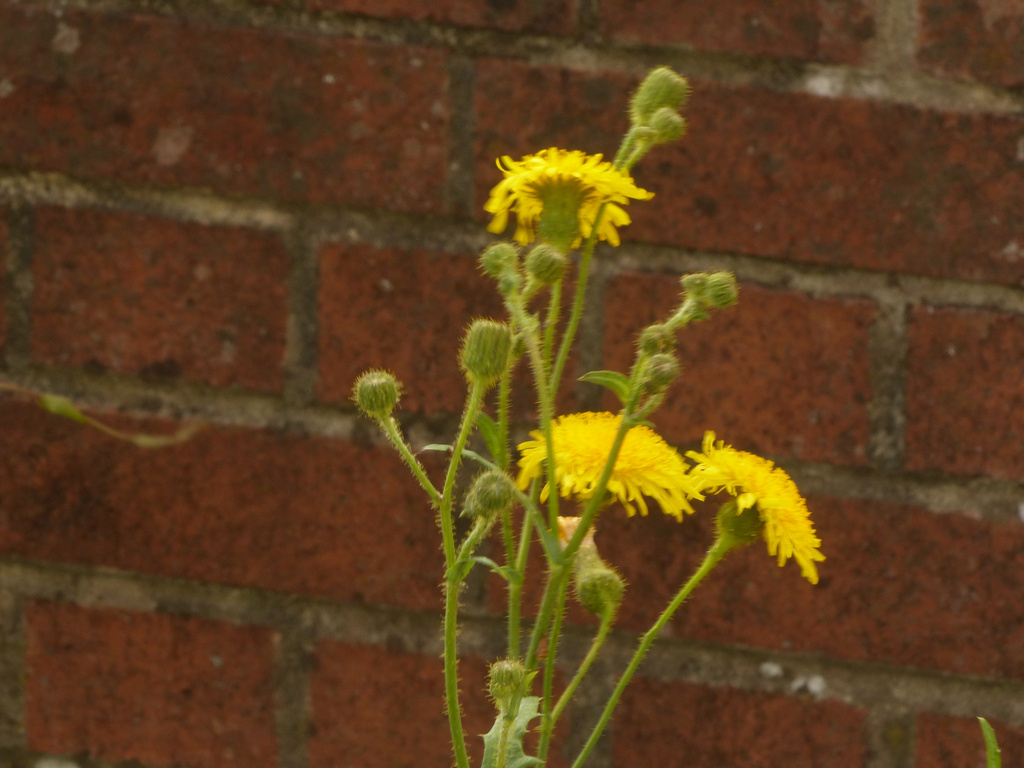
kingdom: Plantae
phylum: Tracheophyta
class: Magnoliopsida
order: Asterales
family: Asteraceae
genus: Sonchus
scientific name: Sonchus arvensis
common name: Perennial sow-thistle
